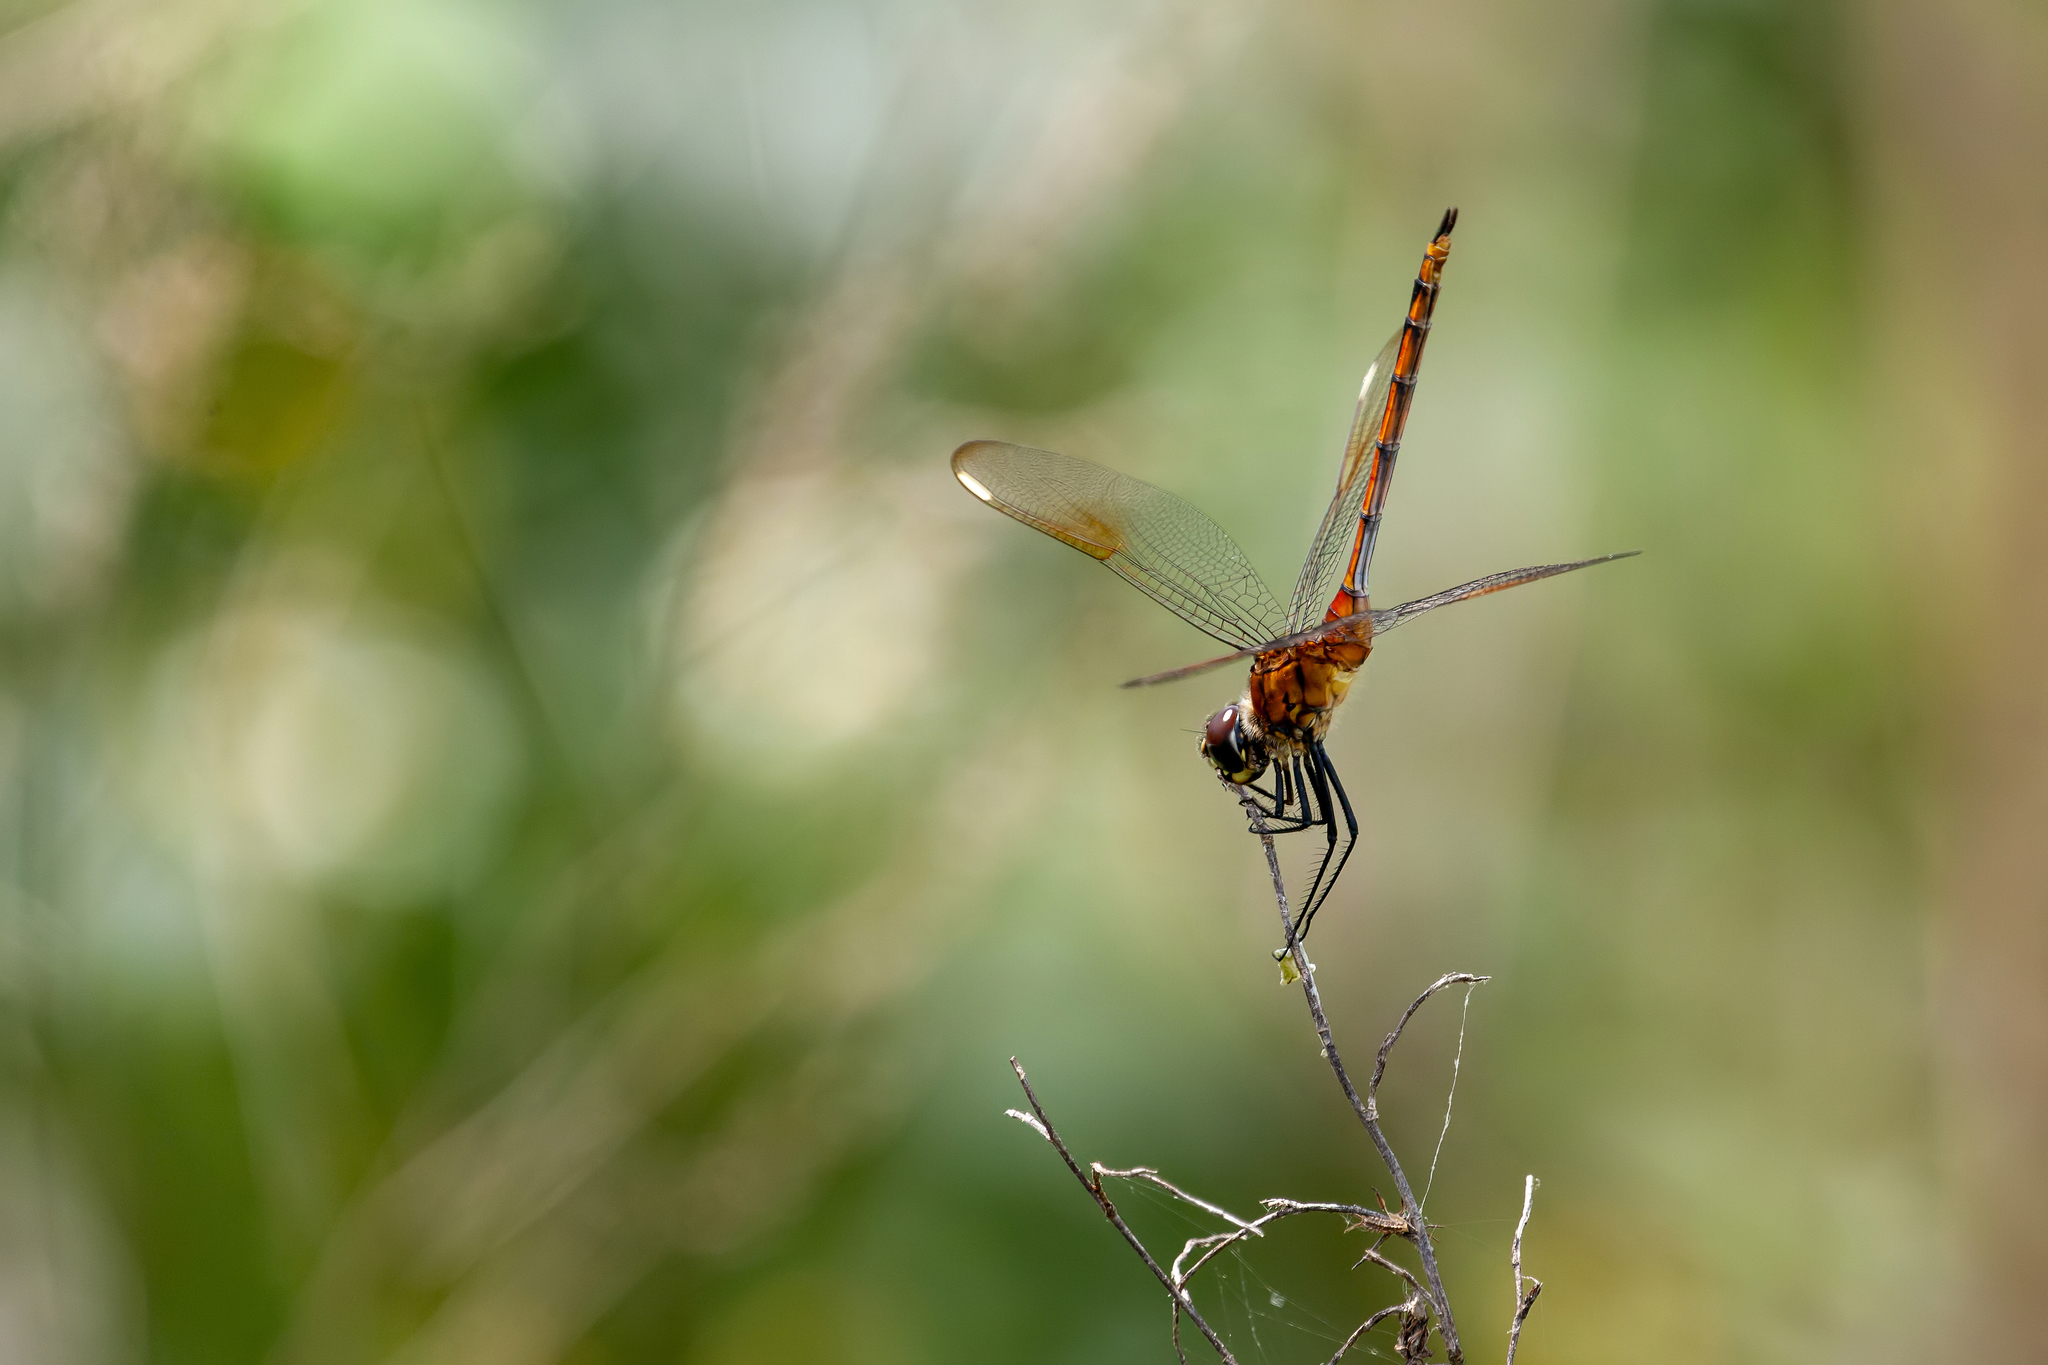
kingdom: Animalia
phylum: Arthropoda
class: Insecta
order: Odonata
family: Libellulidae
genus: Brachymesia
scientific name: Brachymesia gravida
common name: Four-spotted pennant
